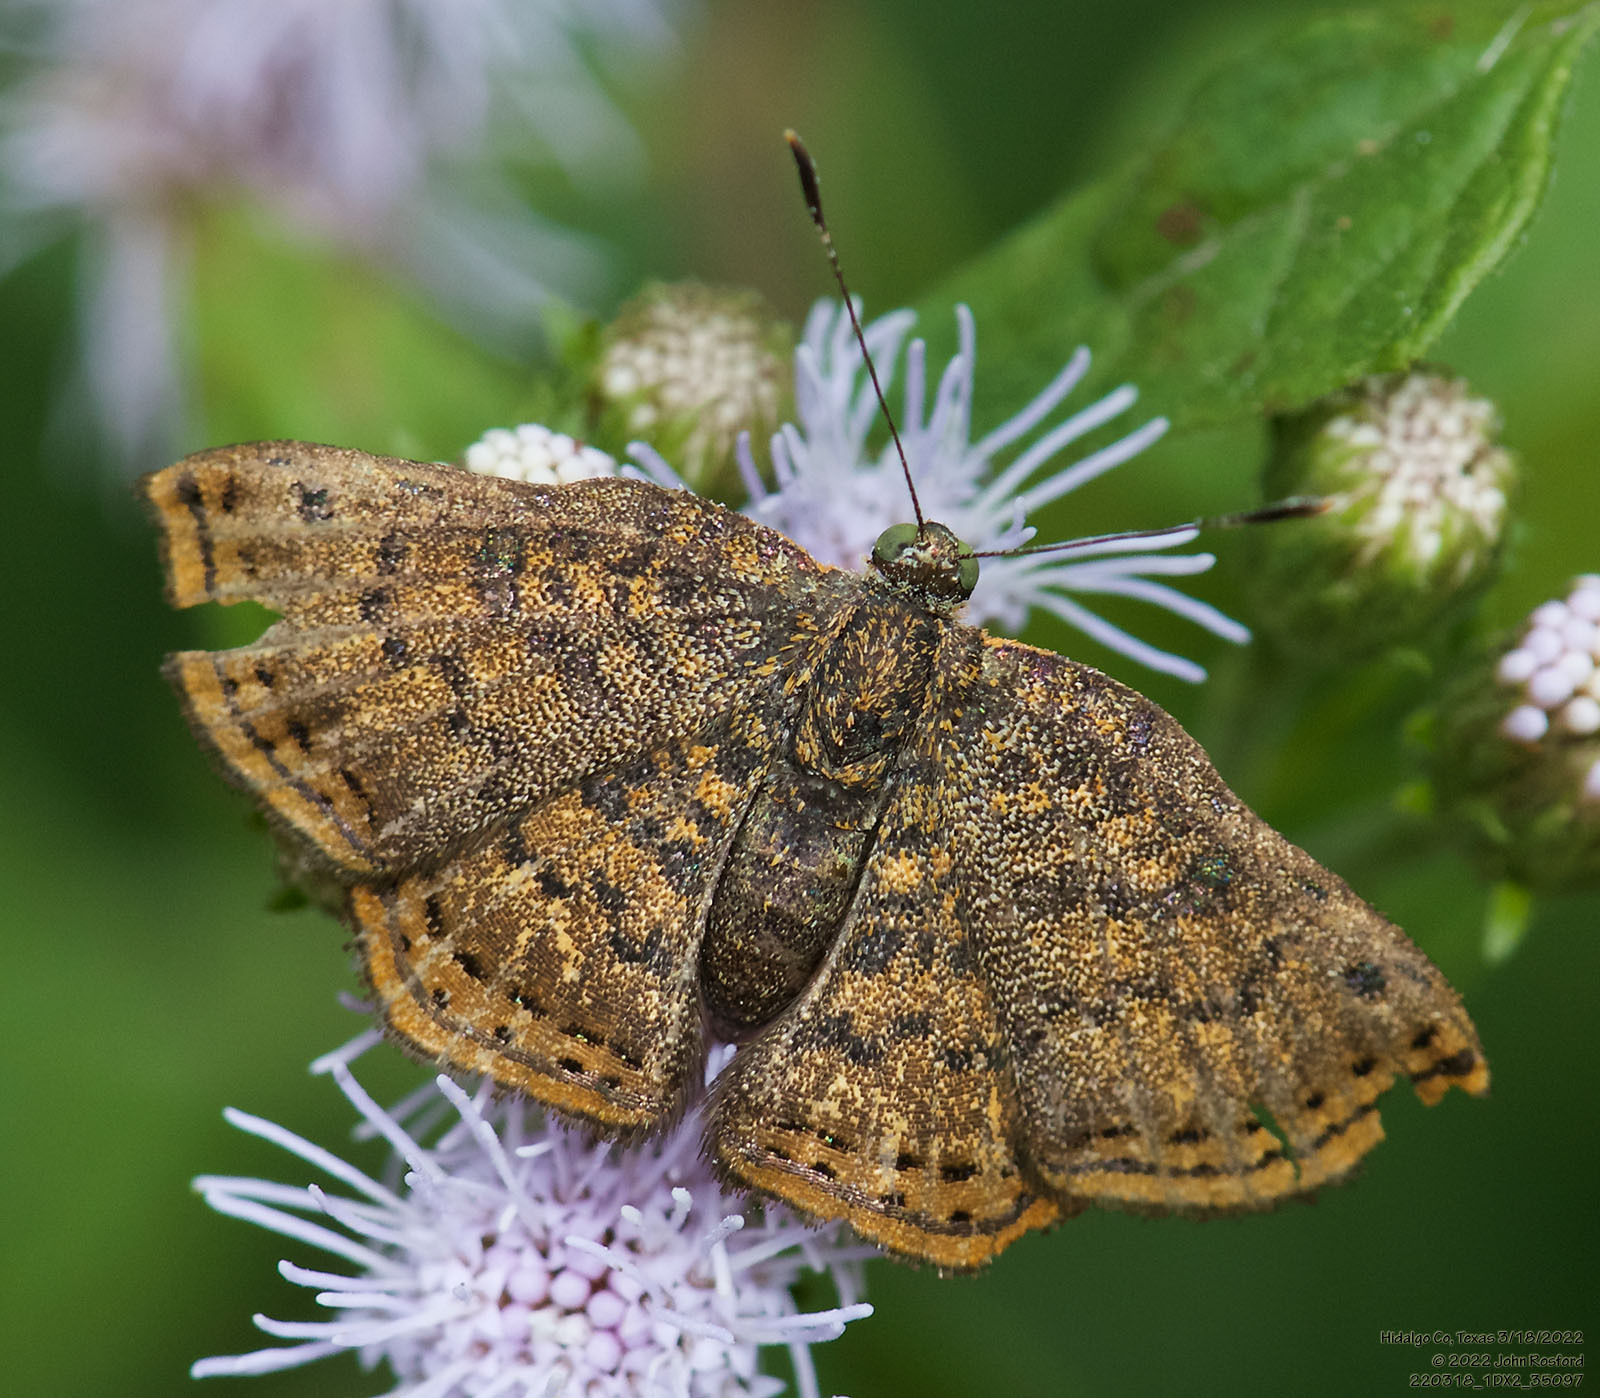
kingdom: Animalia
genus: Caria
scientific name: Caria ino
